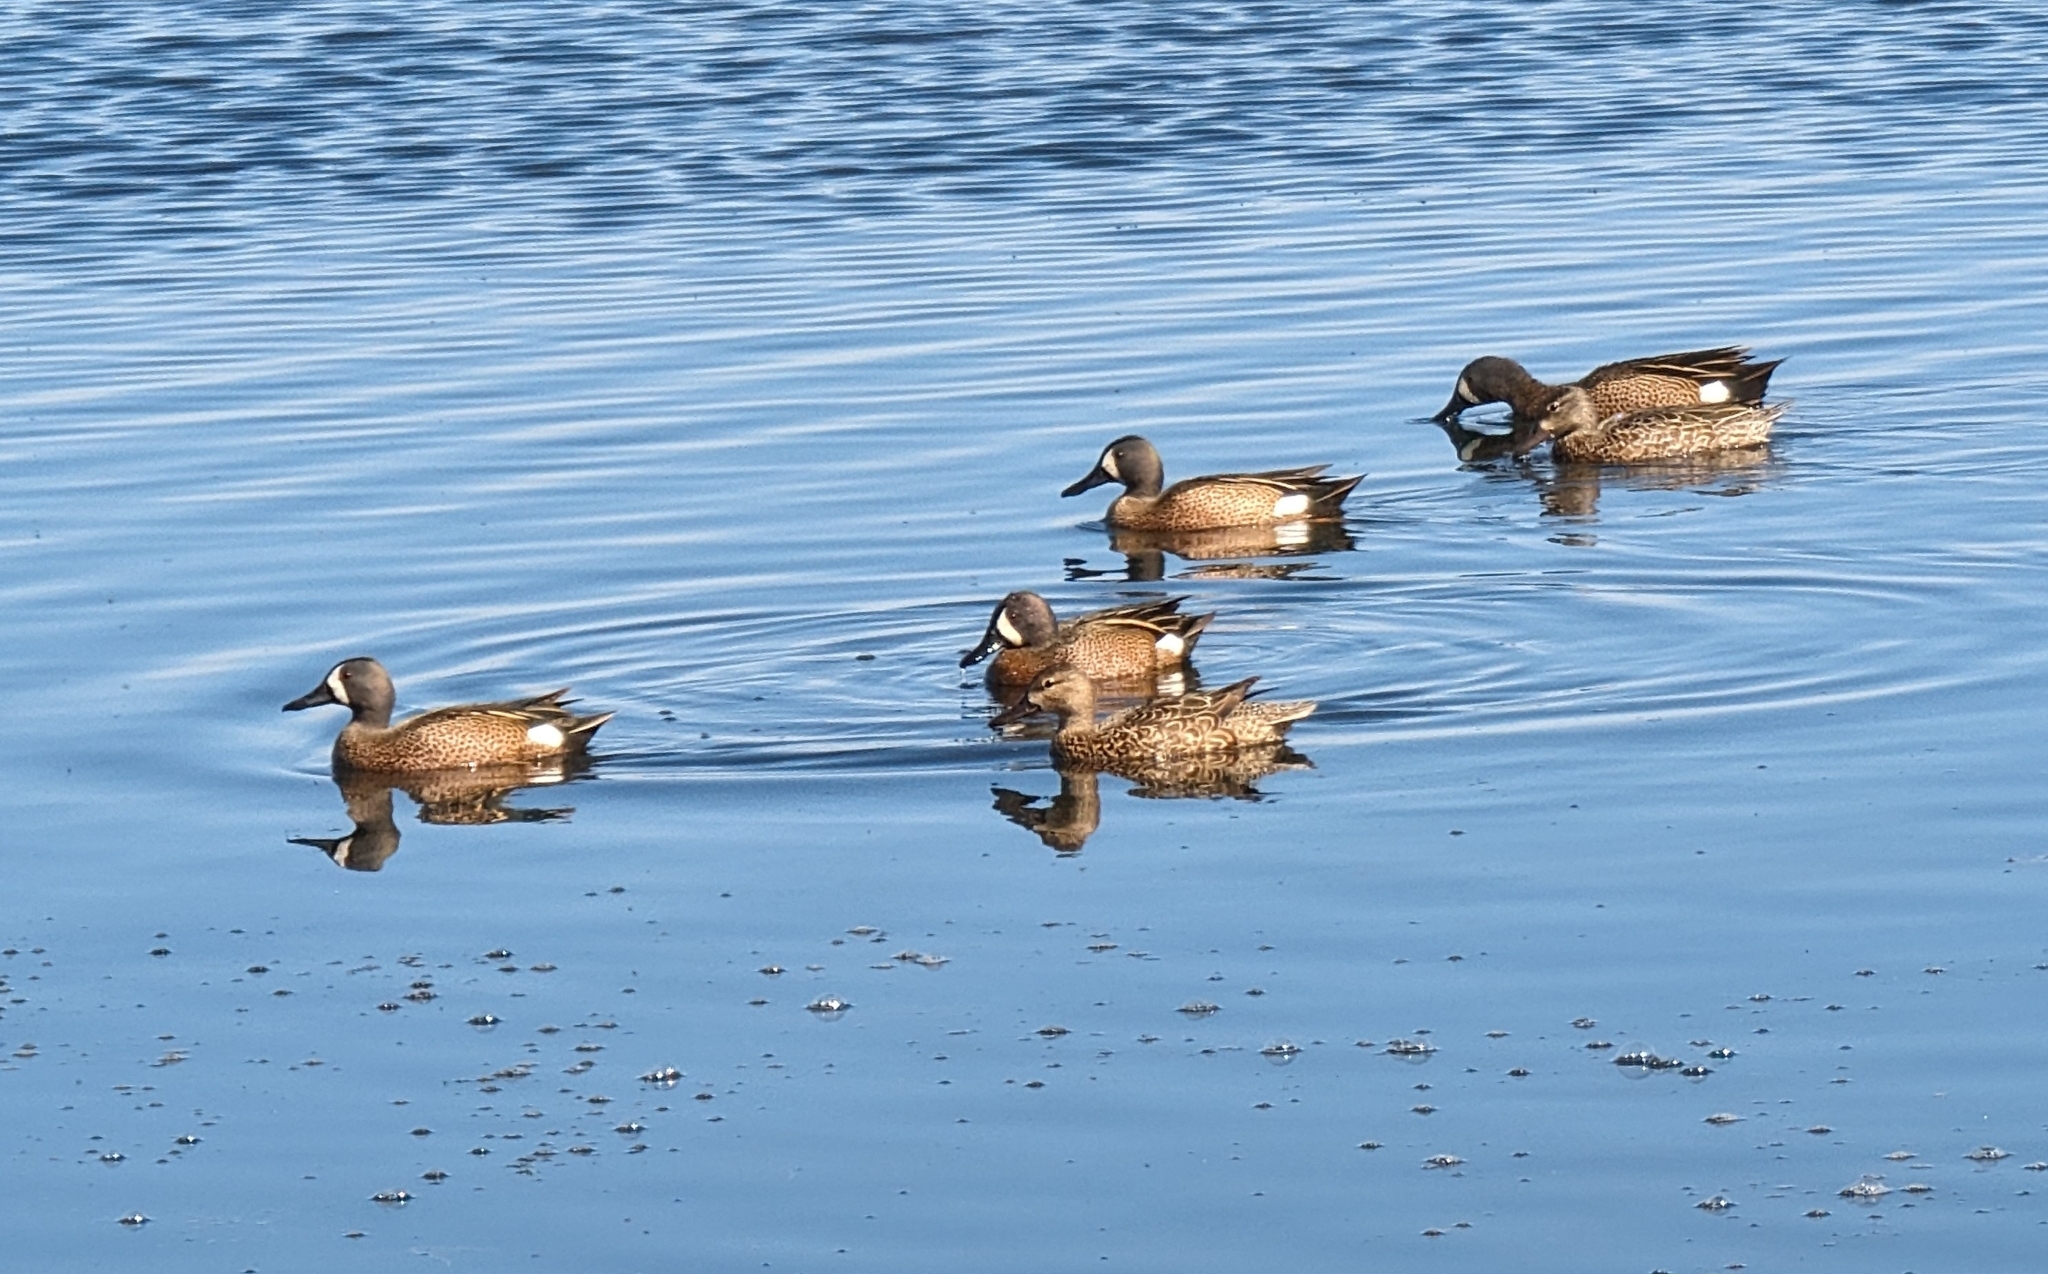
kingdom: Animalia
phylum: Chordata
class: Aves
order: Anseriformes
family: Anatidae
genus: Spatula
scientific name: Spatula discors
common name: Blue-winged teal
